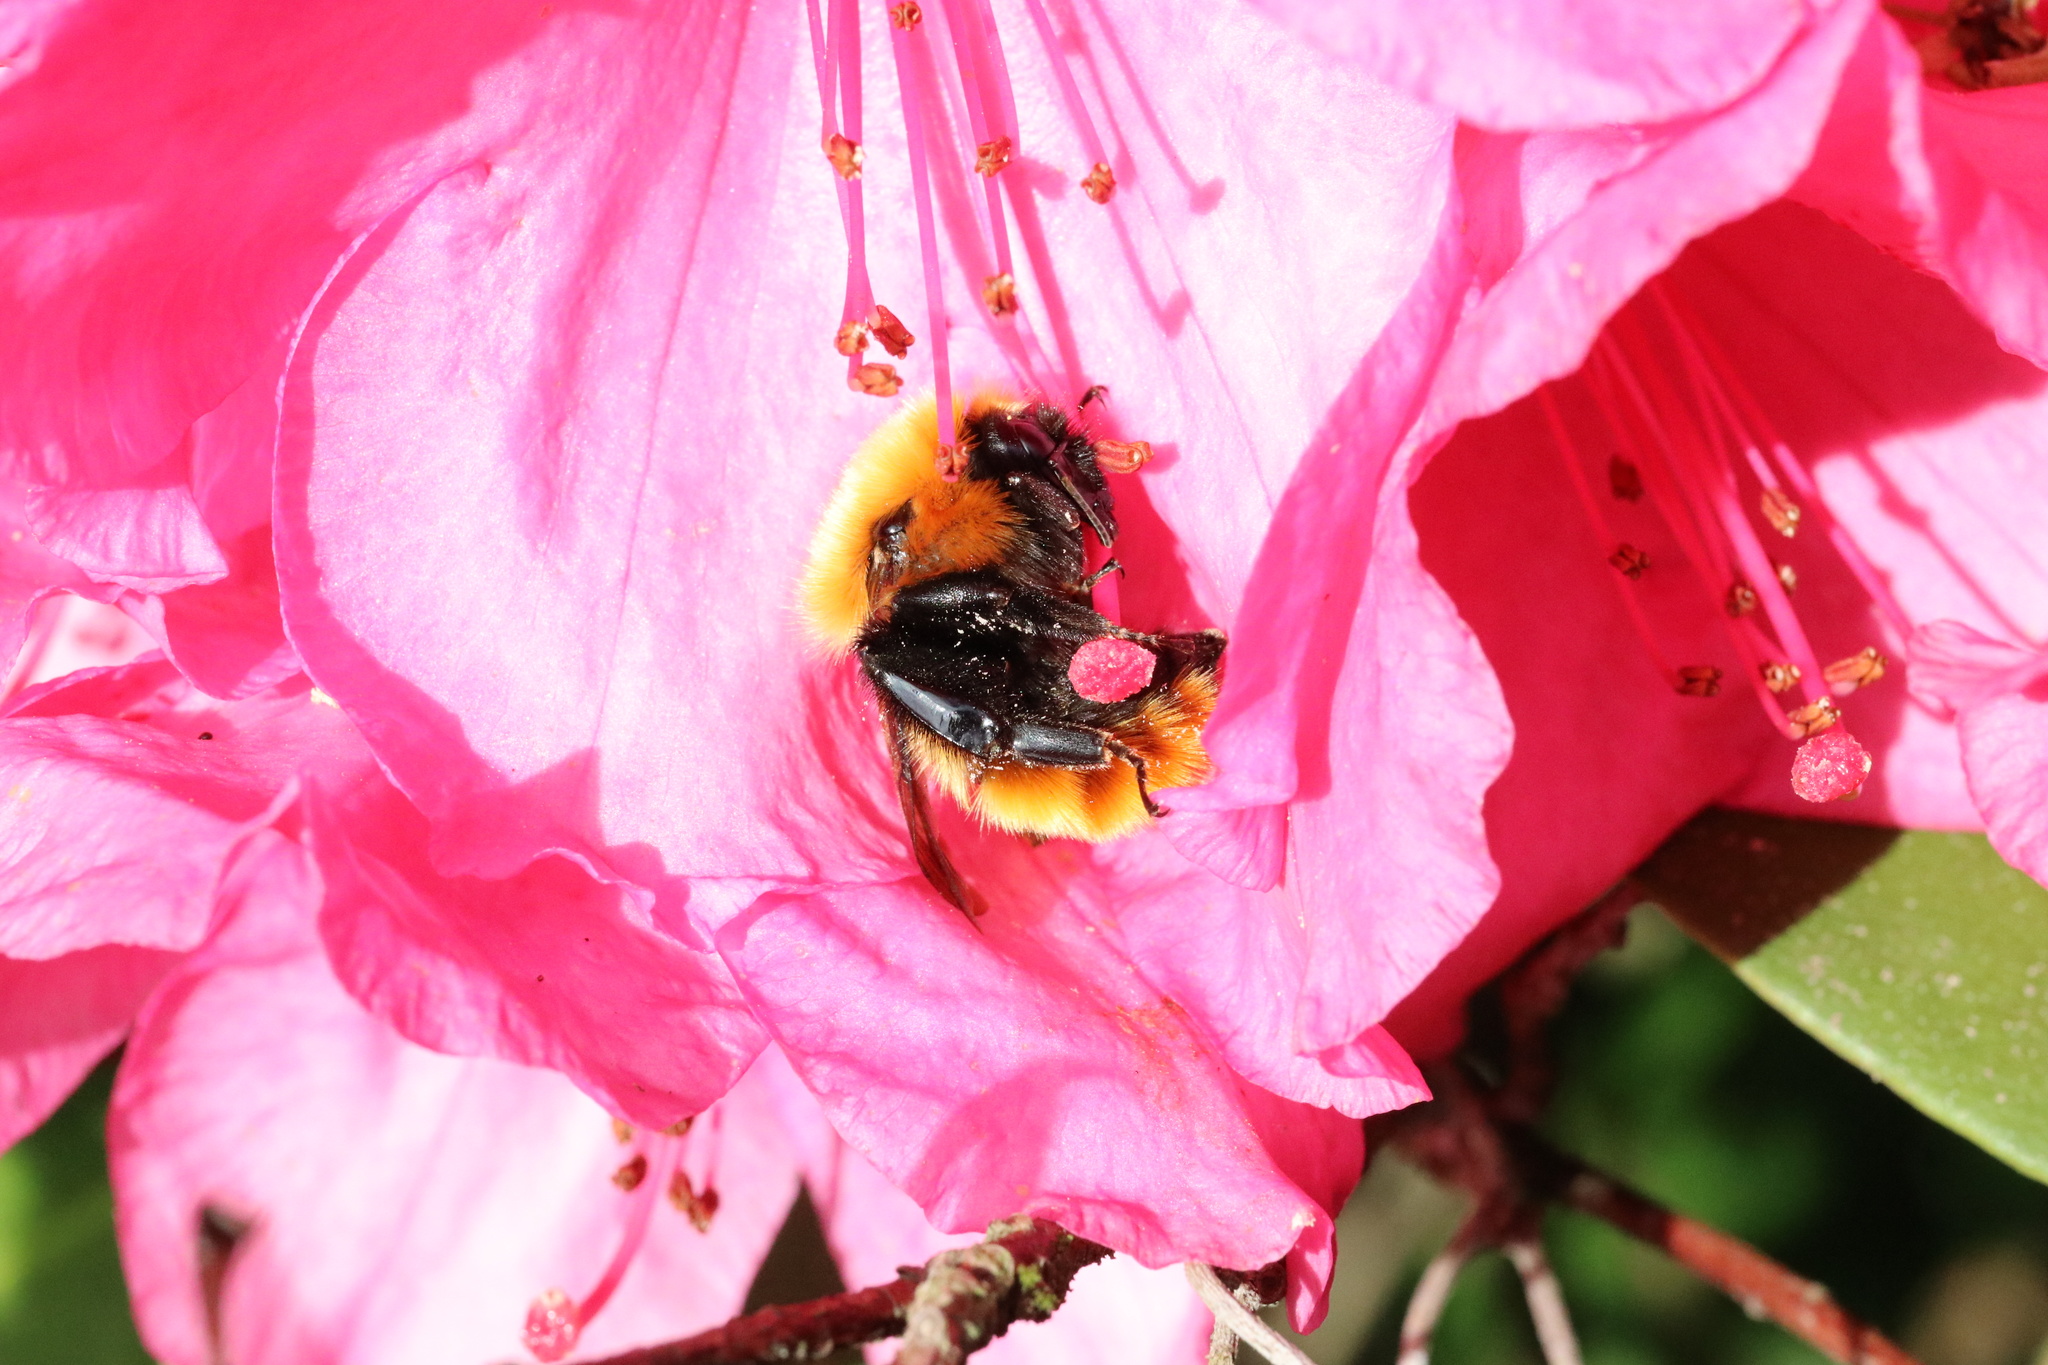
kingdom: Animalia
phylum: Arthropoda
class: Insecta
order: Hymenoptera
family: Apidae
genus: Bombus
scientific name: Bombus dahlbomii
